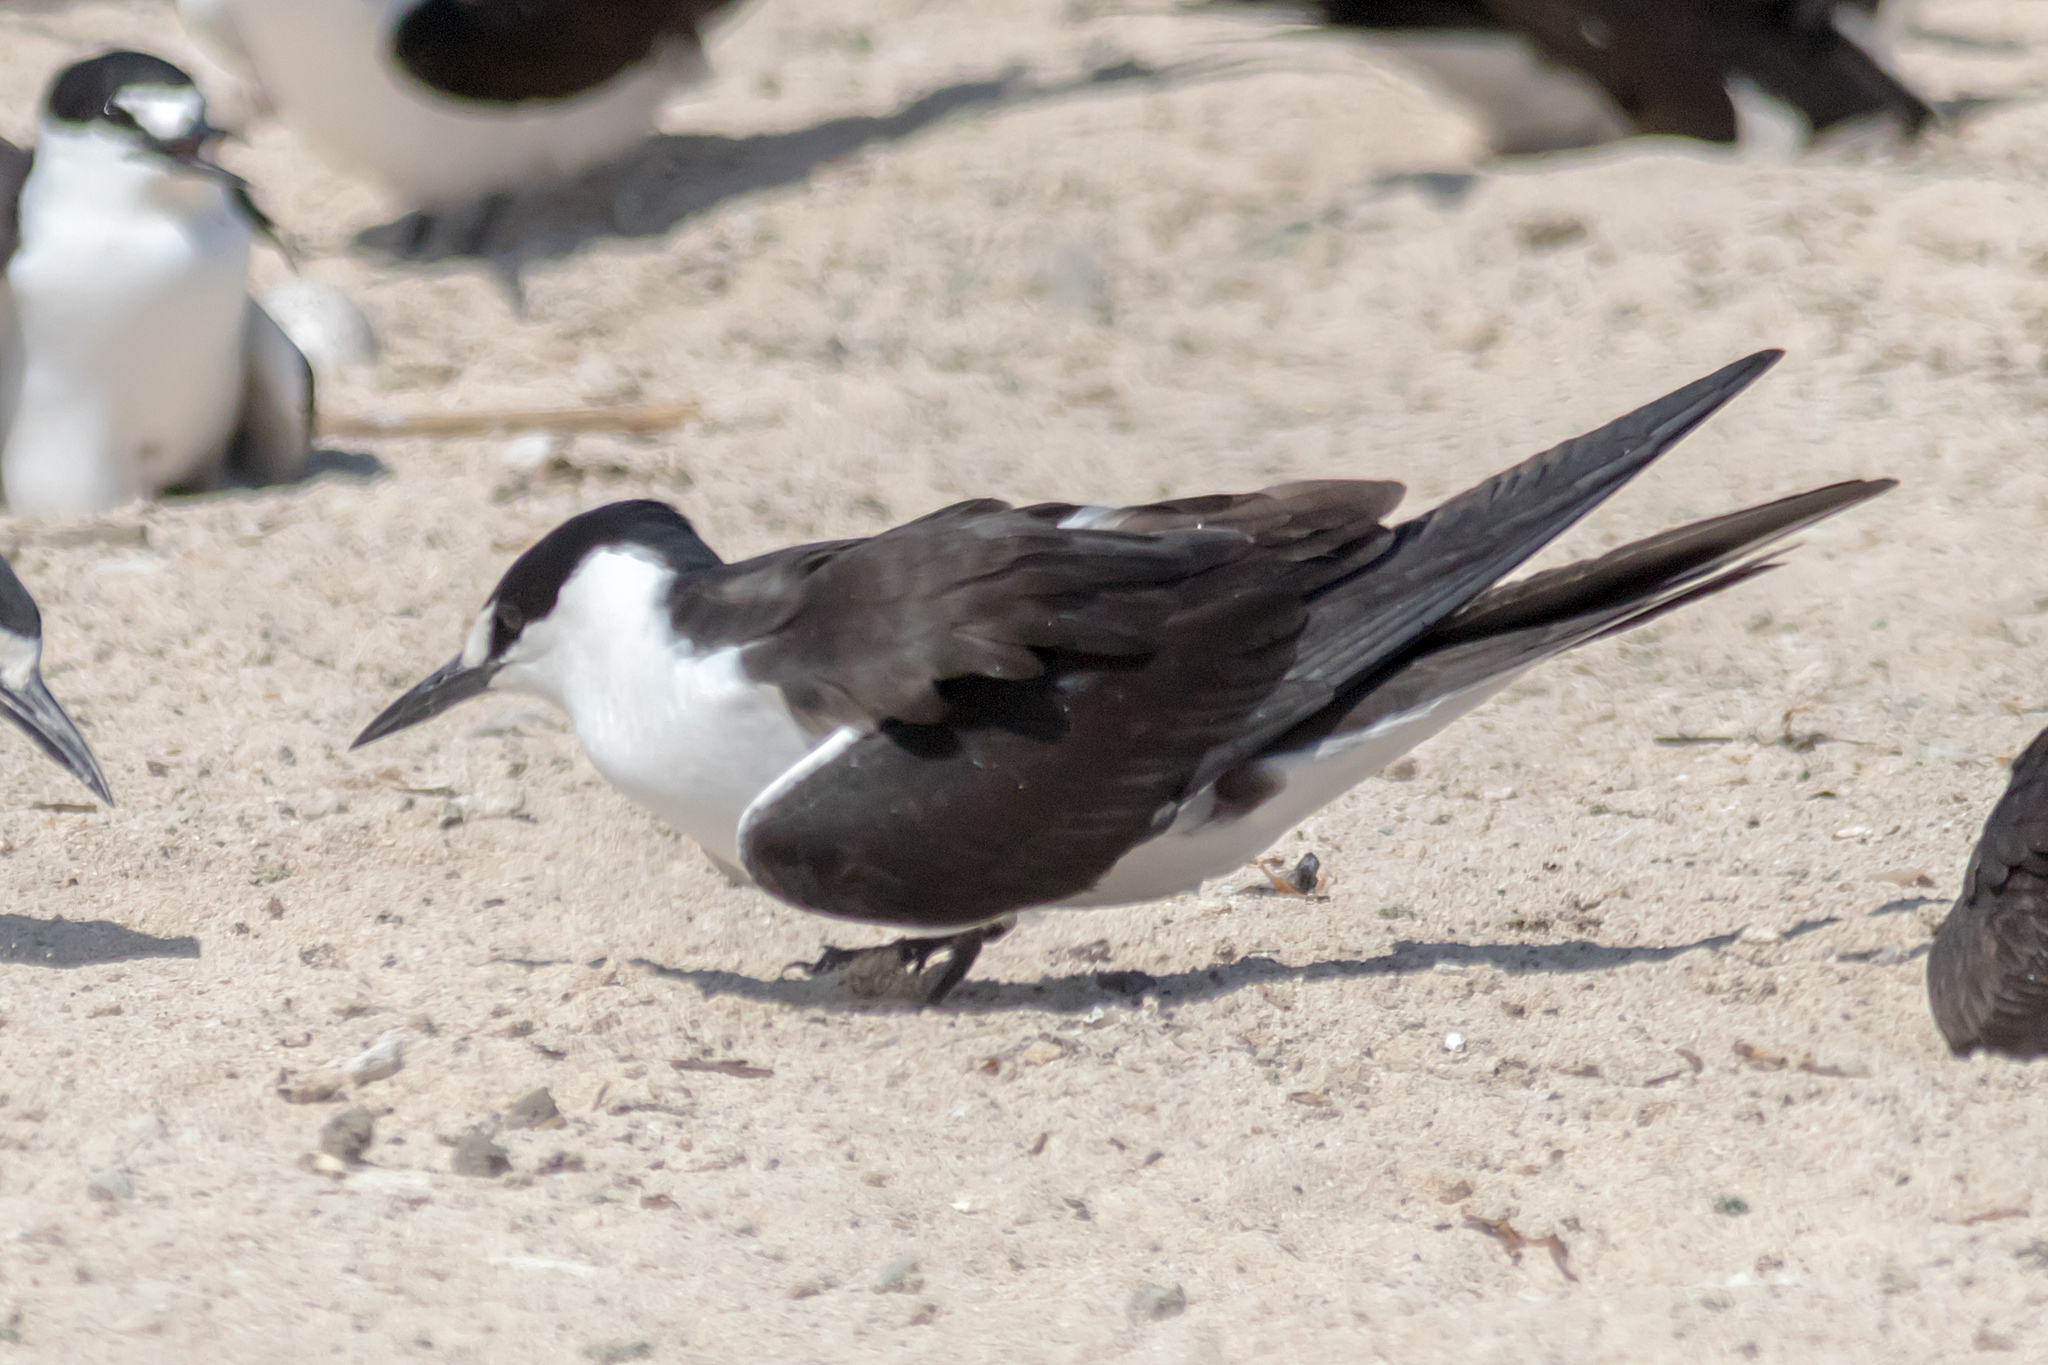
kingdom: Animalia
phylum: Chordata
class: Aves
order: Charadriiformes
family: Laridae
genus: Onychoprion
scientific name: Onychoprion fuscatus
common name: Sooty tern
